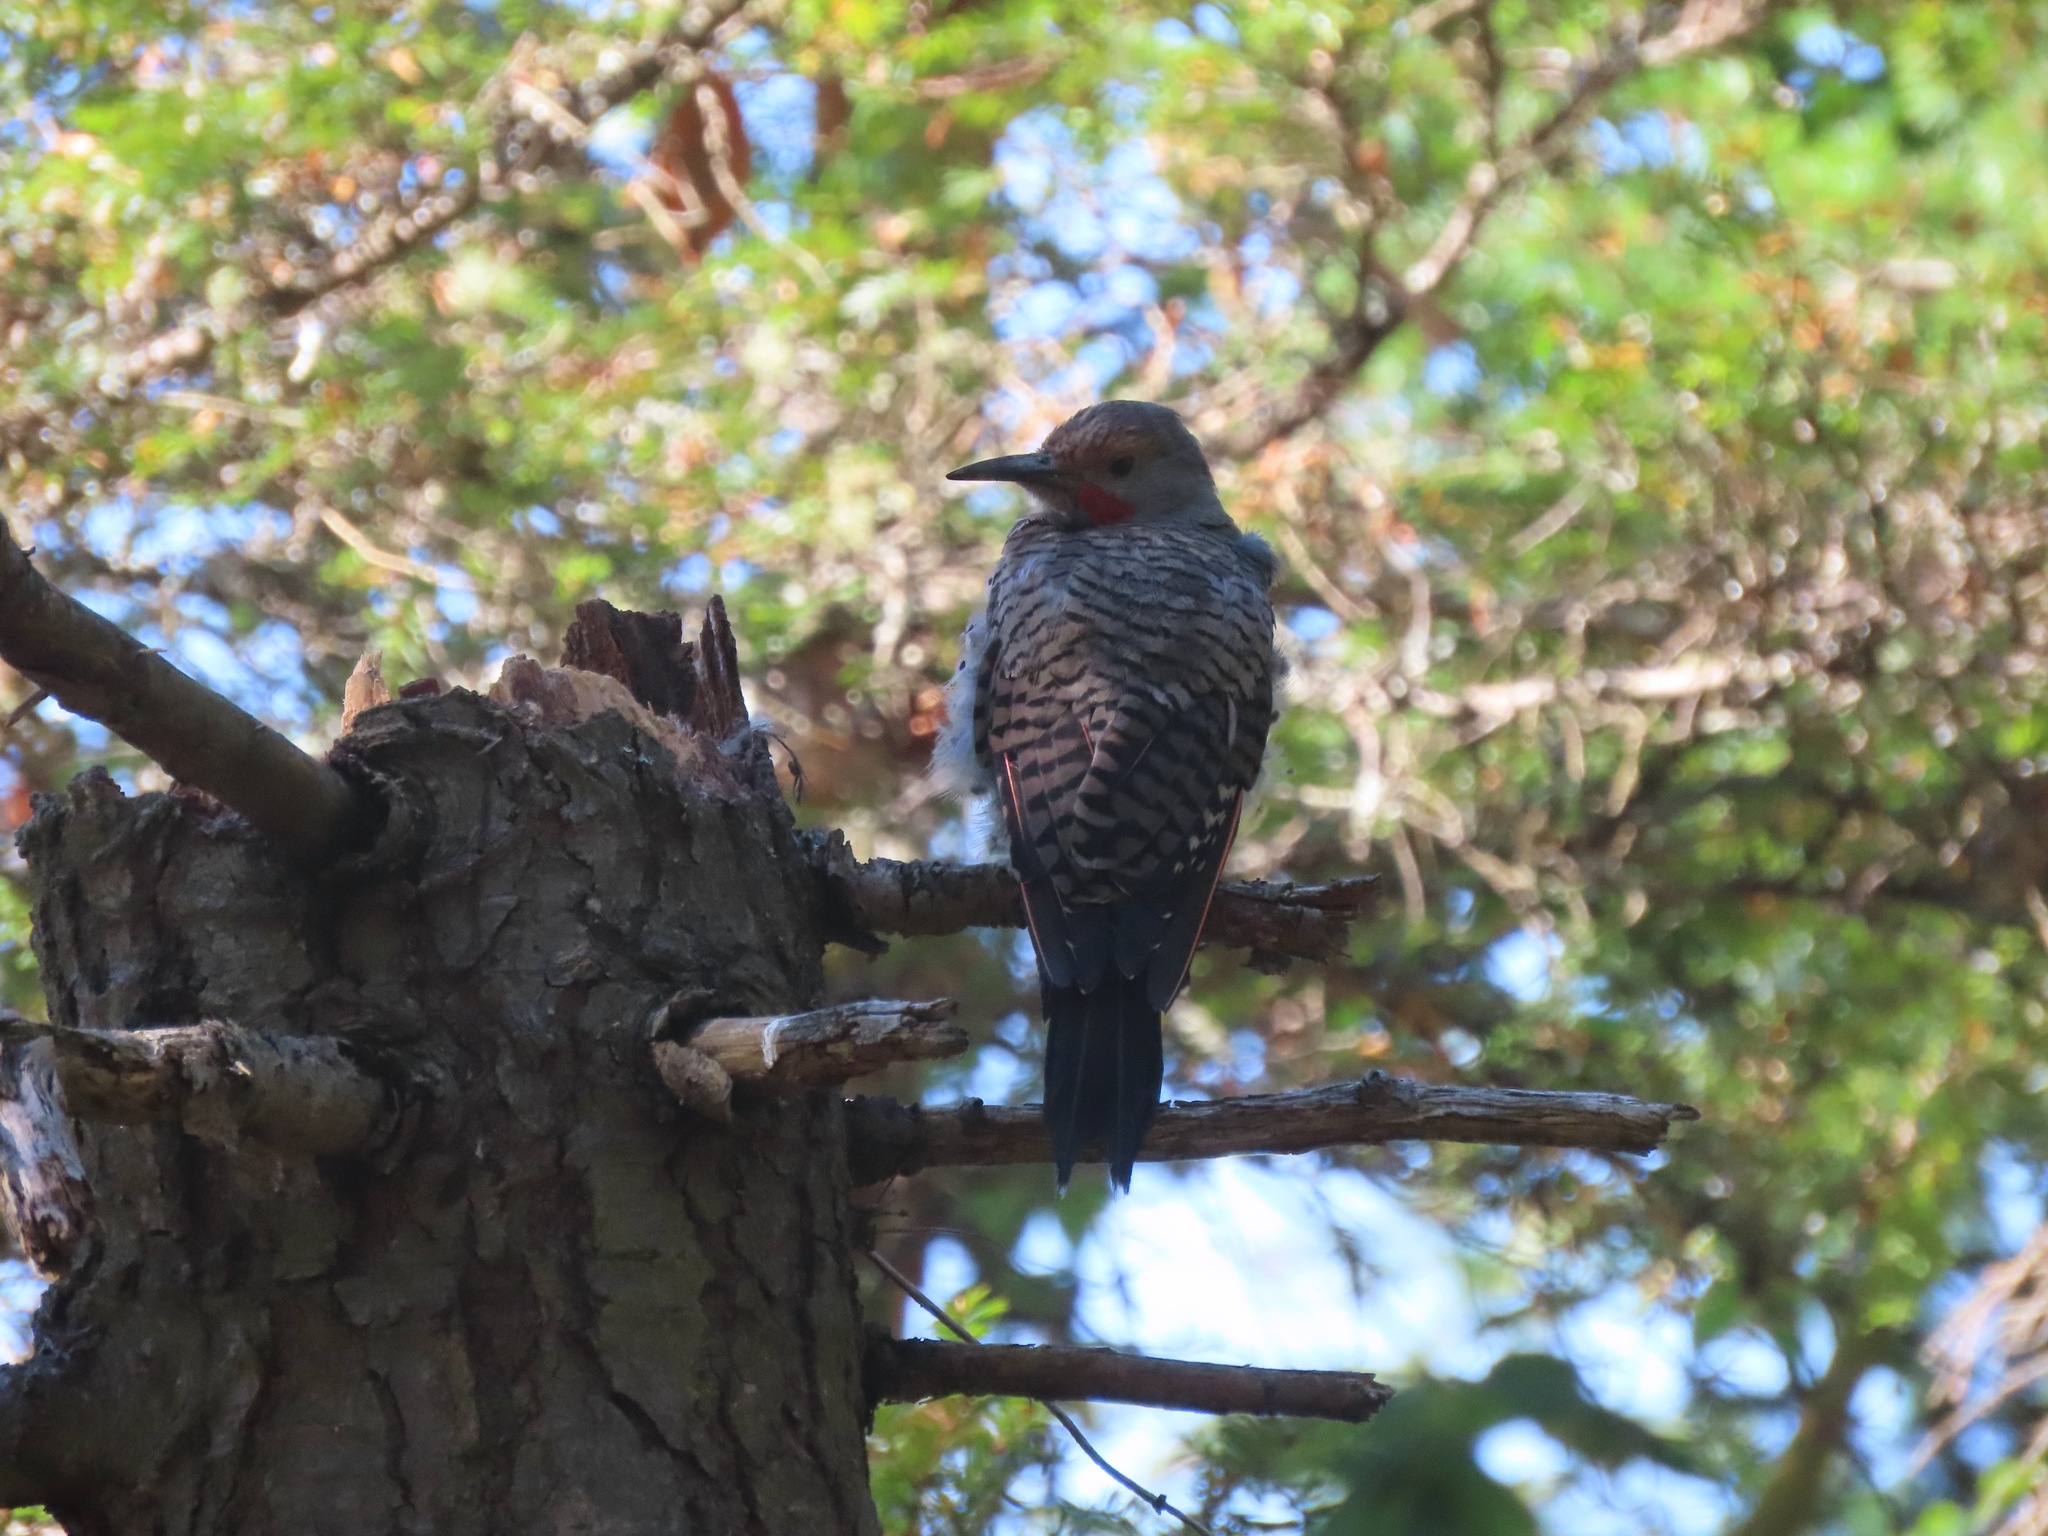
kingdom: Animalia
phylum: Chordata
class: Aves
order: Piciformes
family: Picidae
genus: Colaptes
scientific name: Colaptes auratus
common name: Northern flicker
